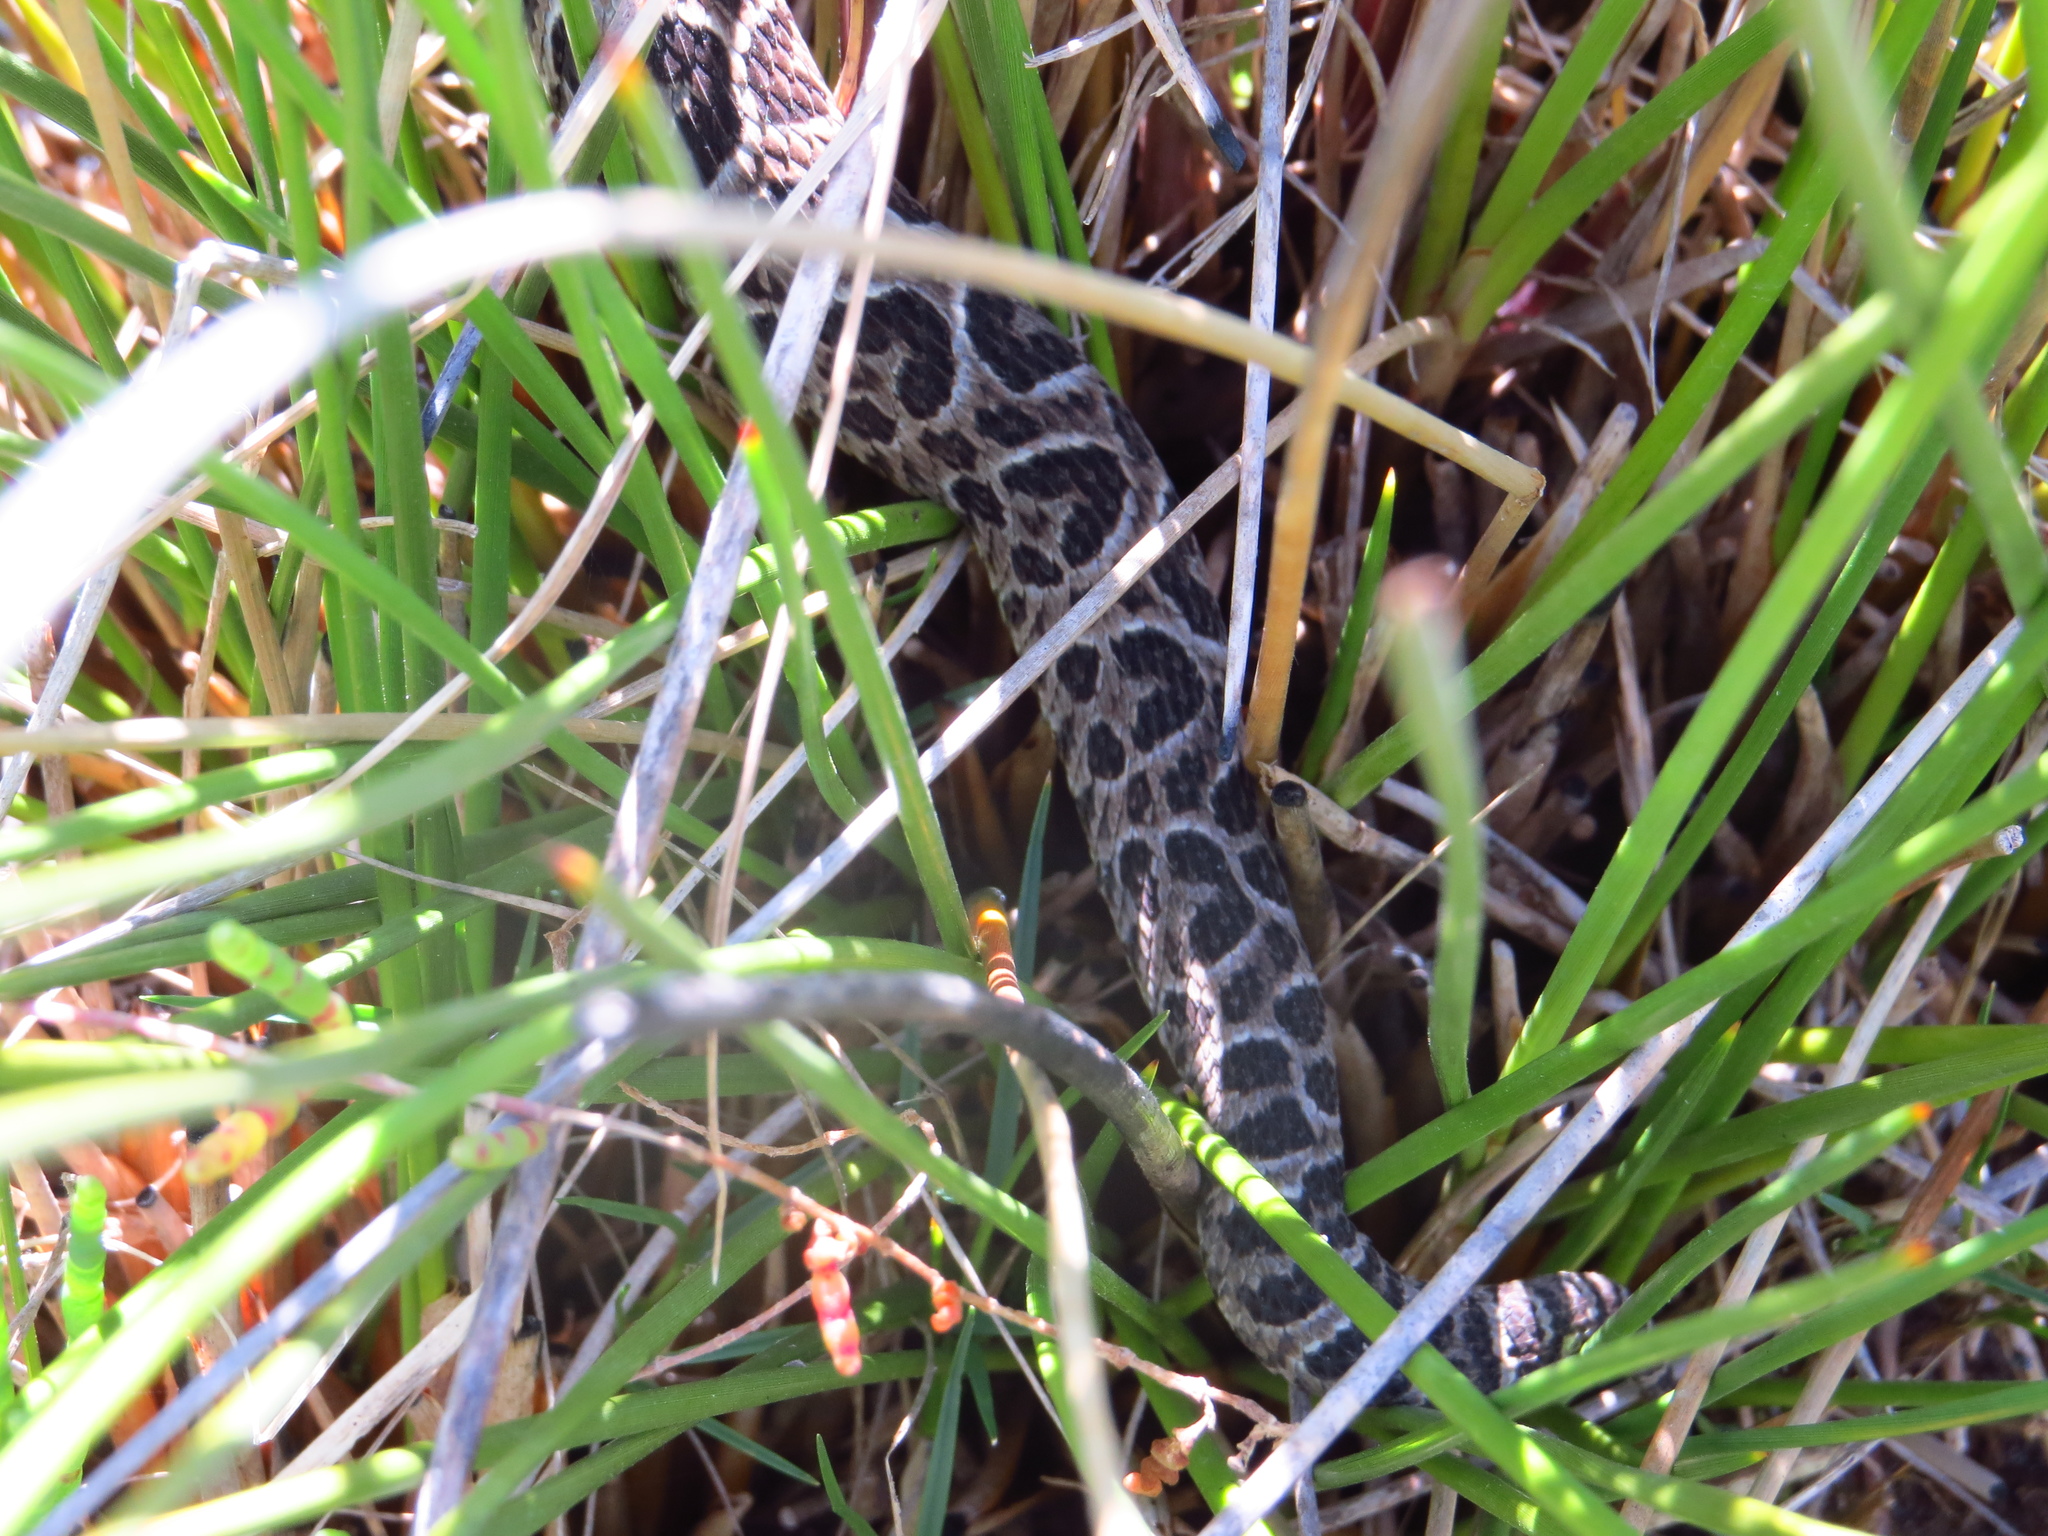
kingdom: Animalia
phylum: Chordata
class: Squamata
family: Viperidae
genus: Bothrops
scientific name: Bothrops alternatus
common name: Urutu
